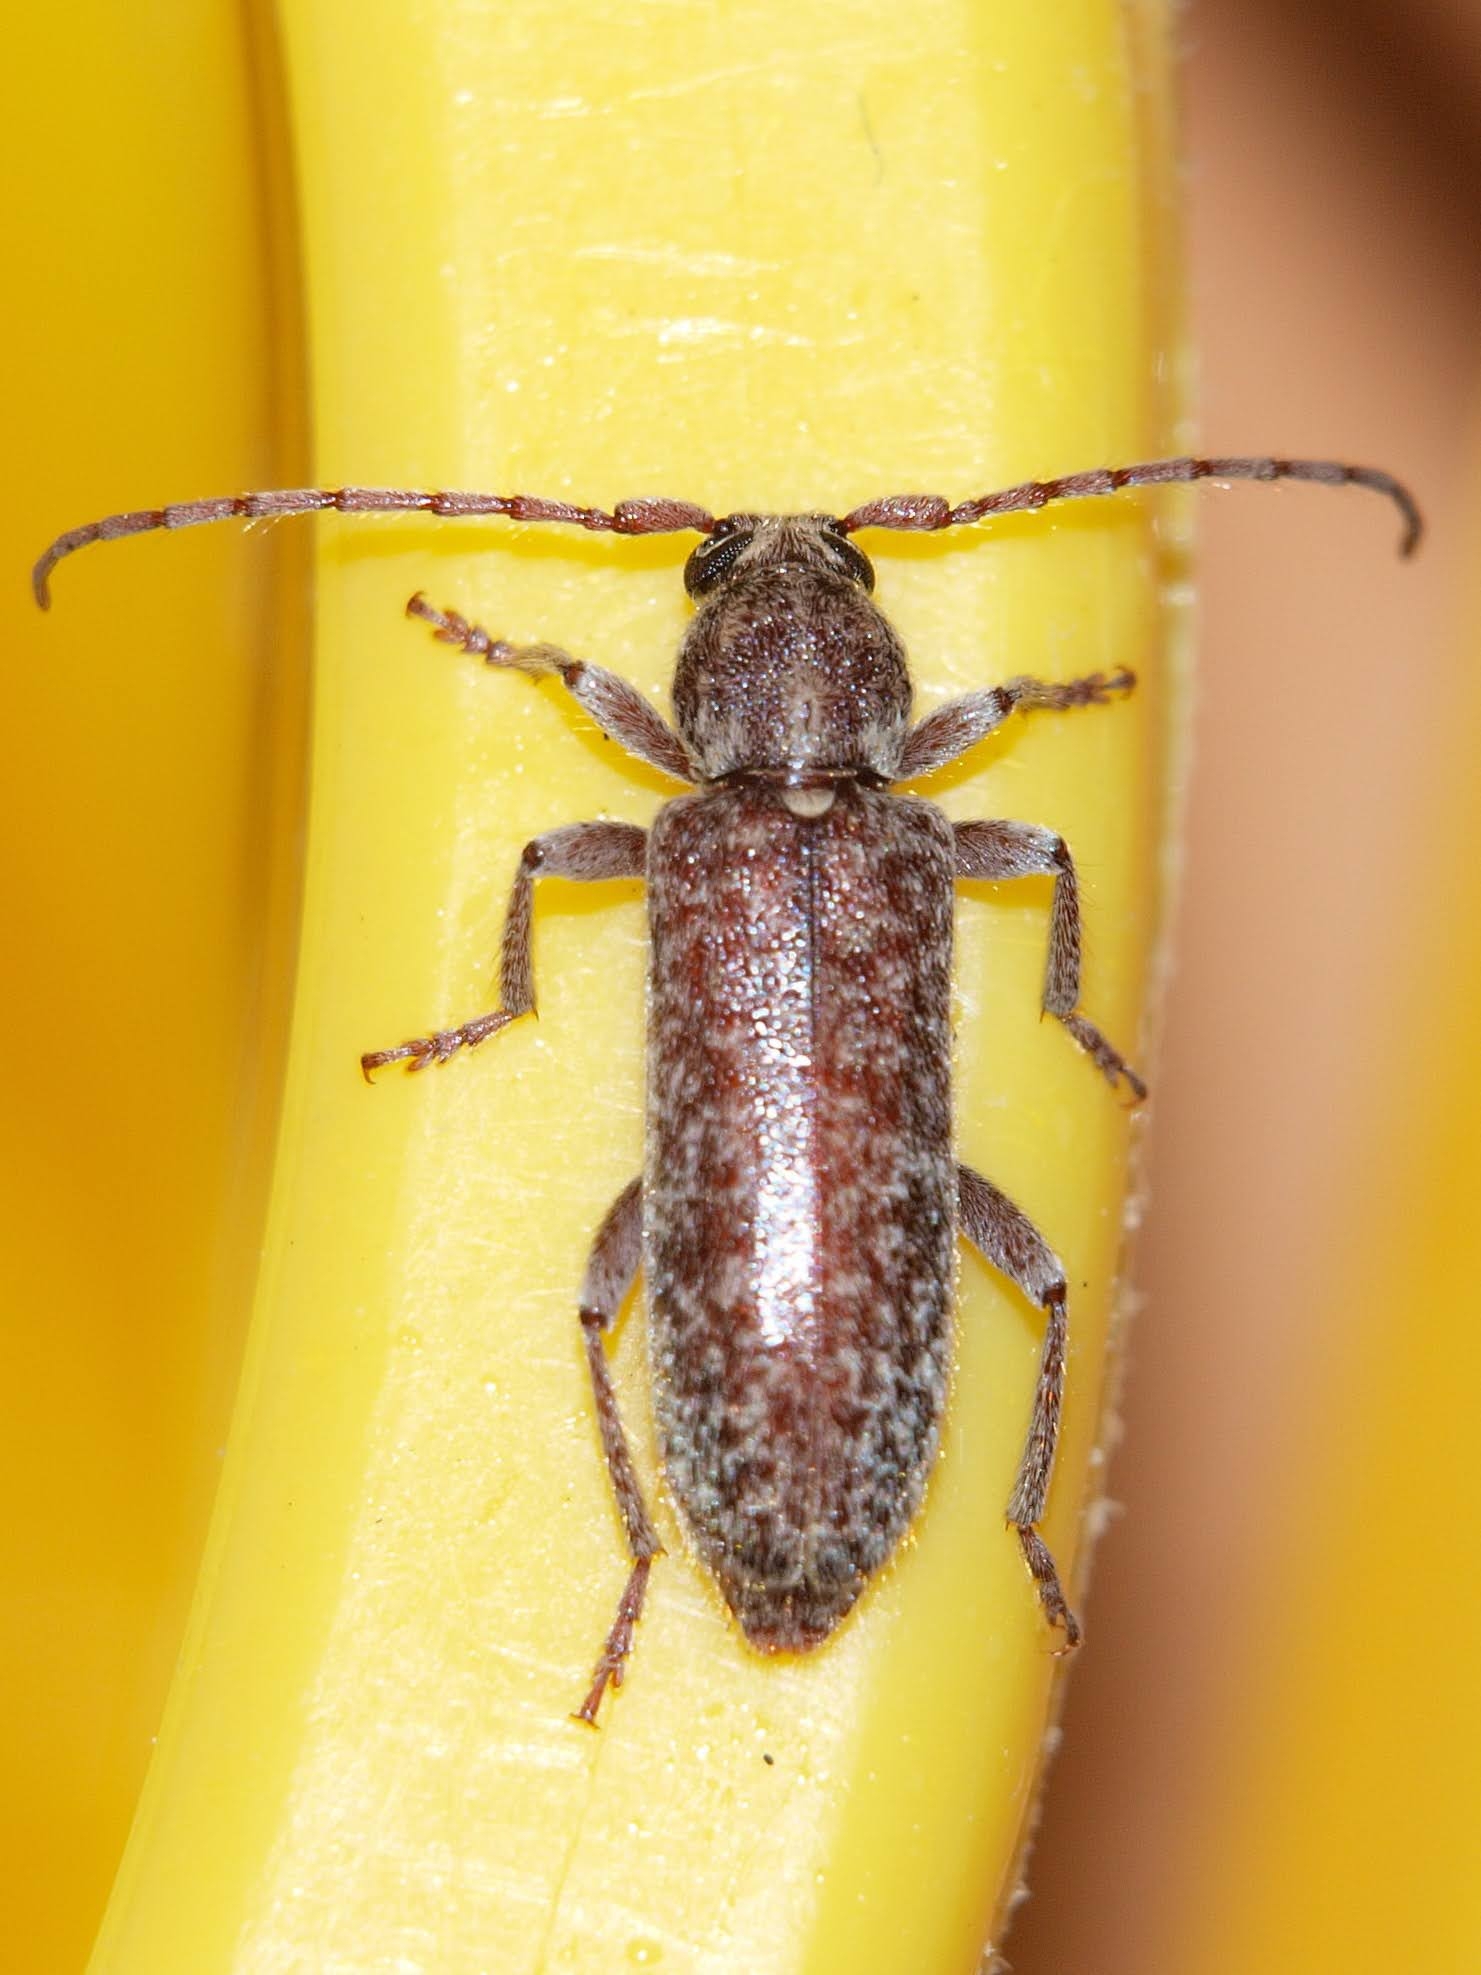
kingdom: Animalia
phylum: Arthropoda
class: Insecta
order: Coleoptera
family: Cerambycidae
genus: Trichoferus
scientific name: Trichoferus spartii
